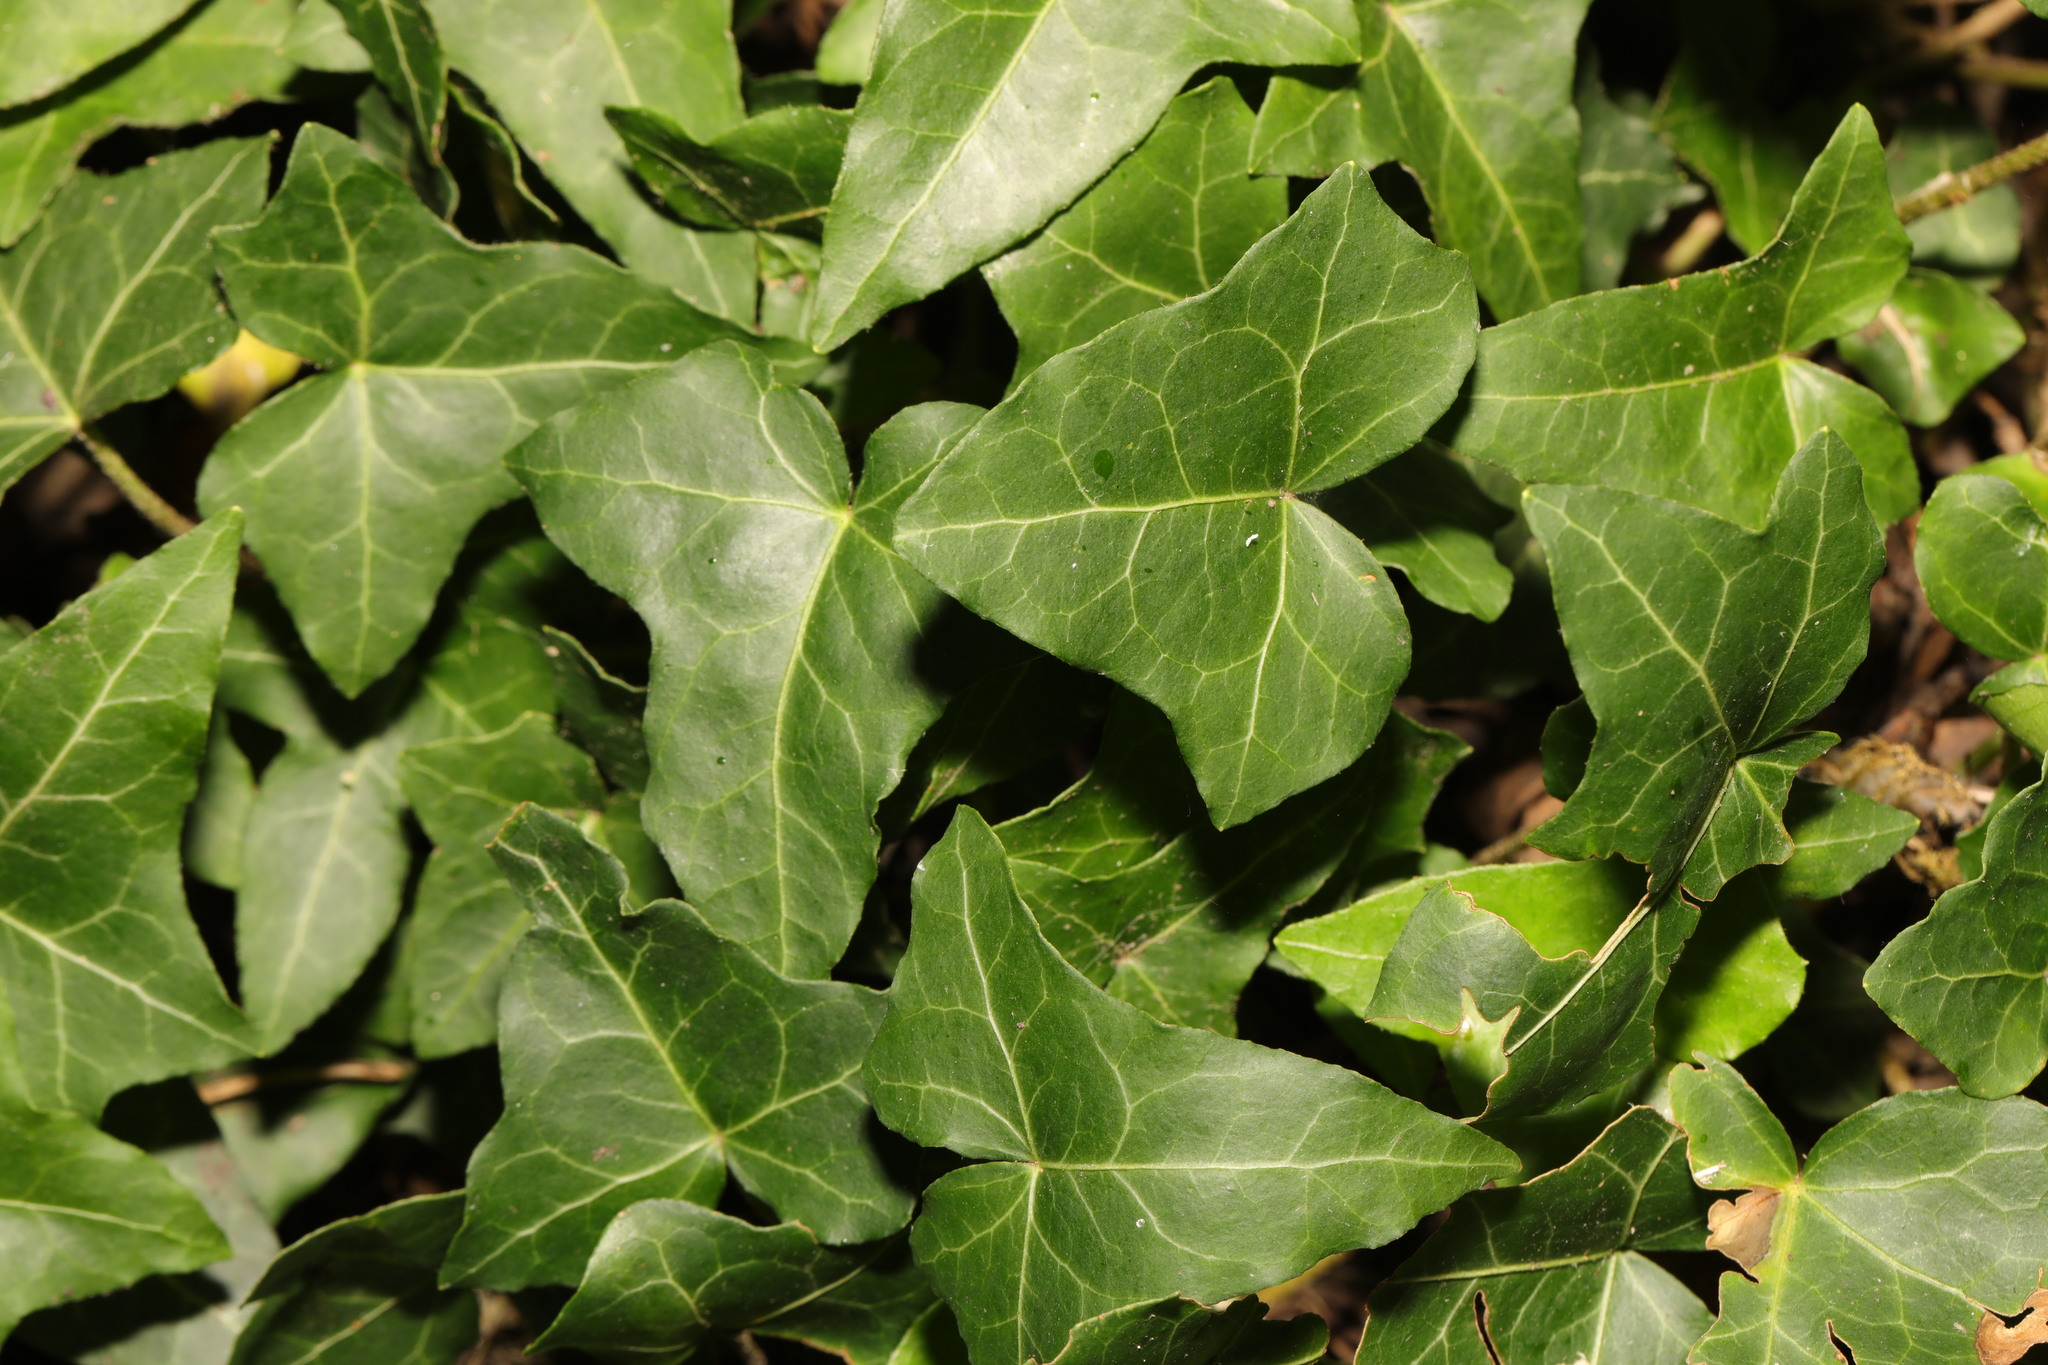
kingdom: Plantae
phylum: Tracheophyta
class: Magnoliopsida
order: Apiales
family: Araliaceae
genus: Hedera
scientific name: Hedera helix
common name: Ivy
